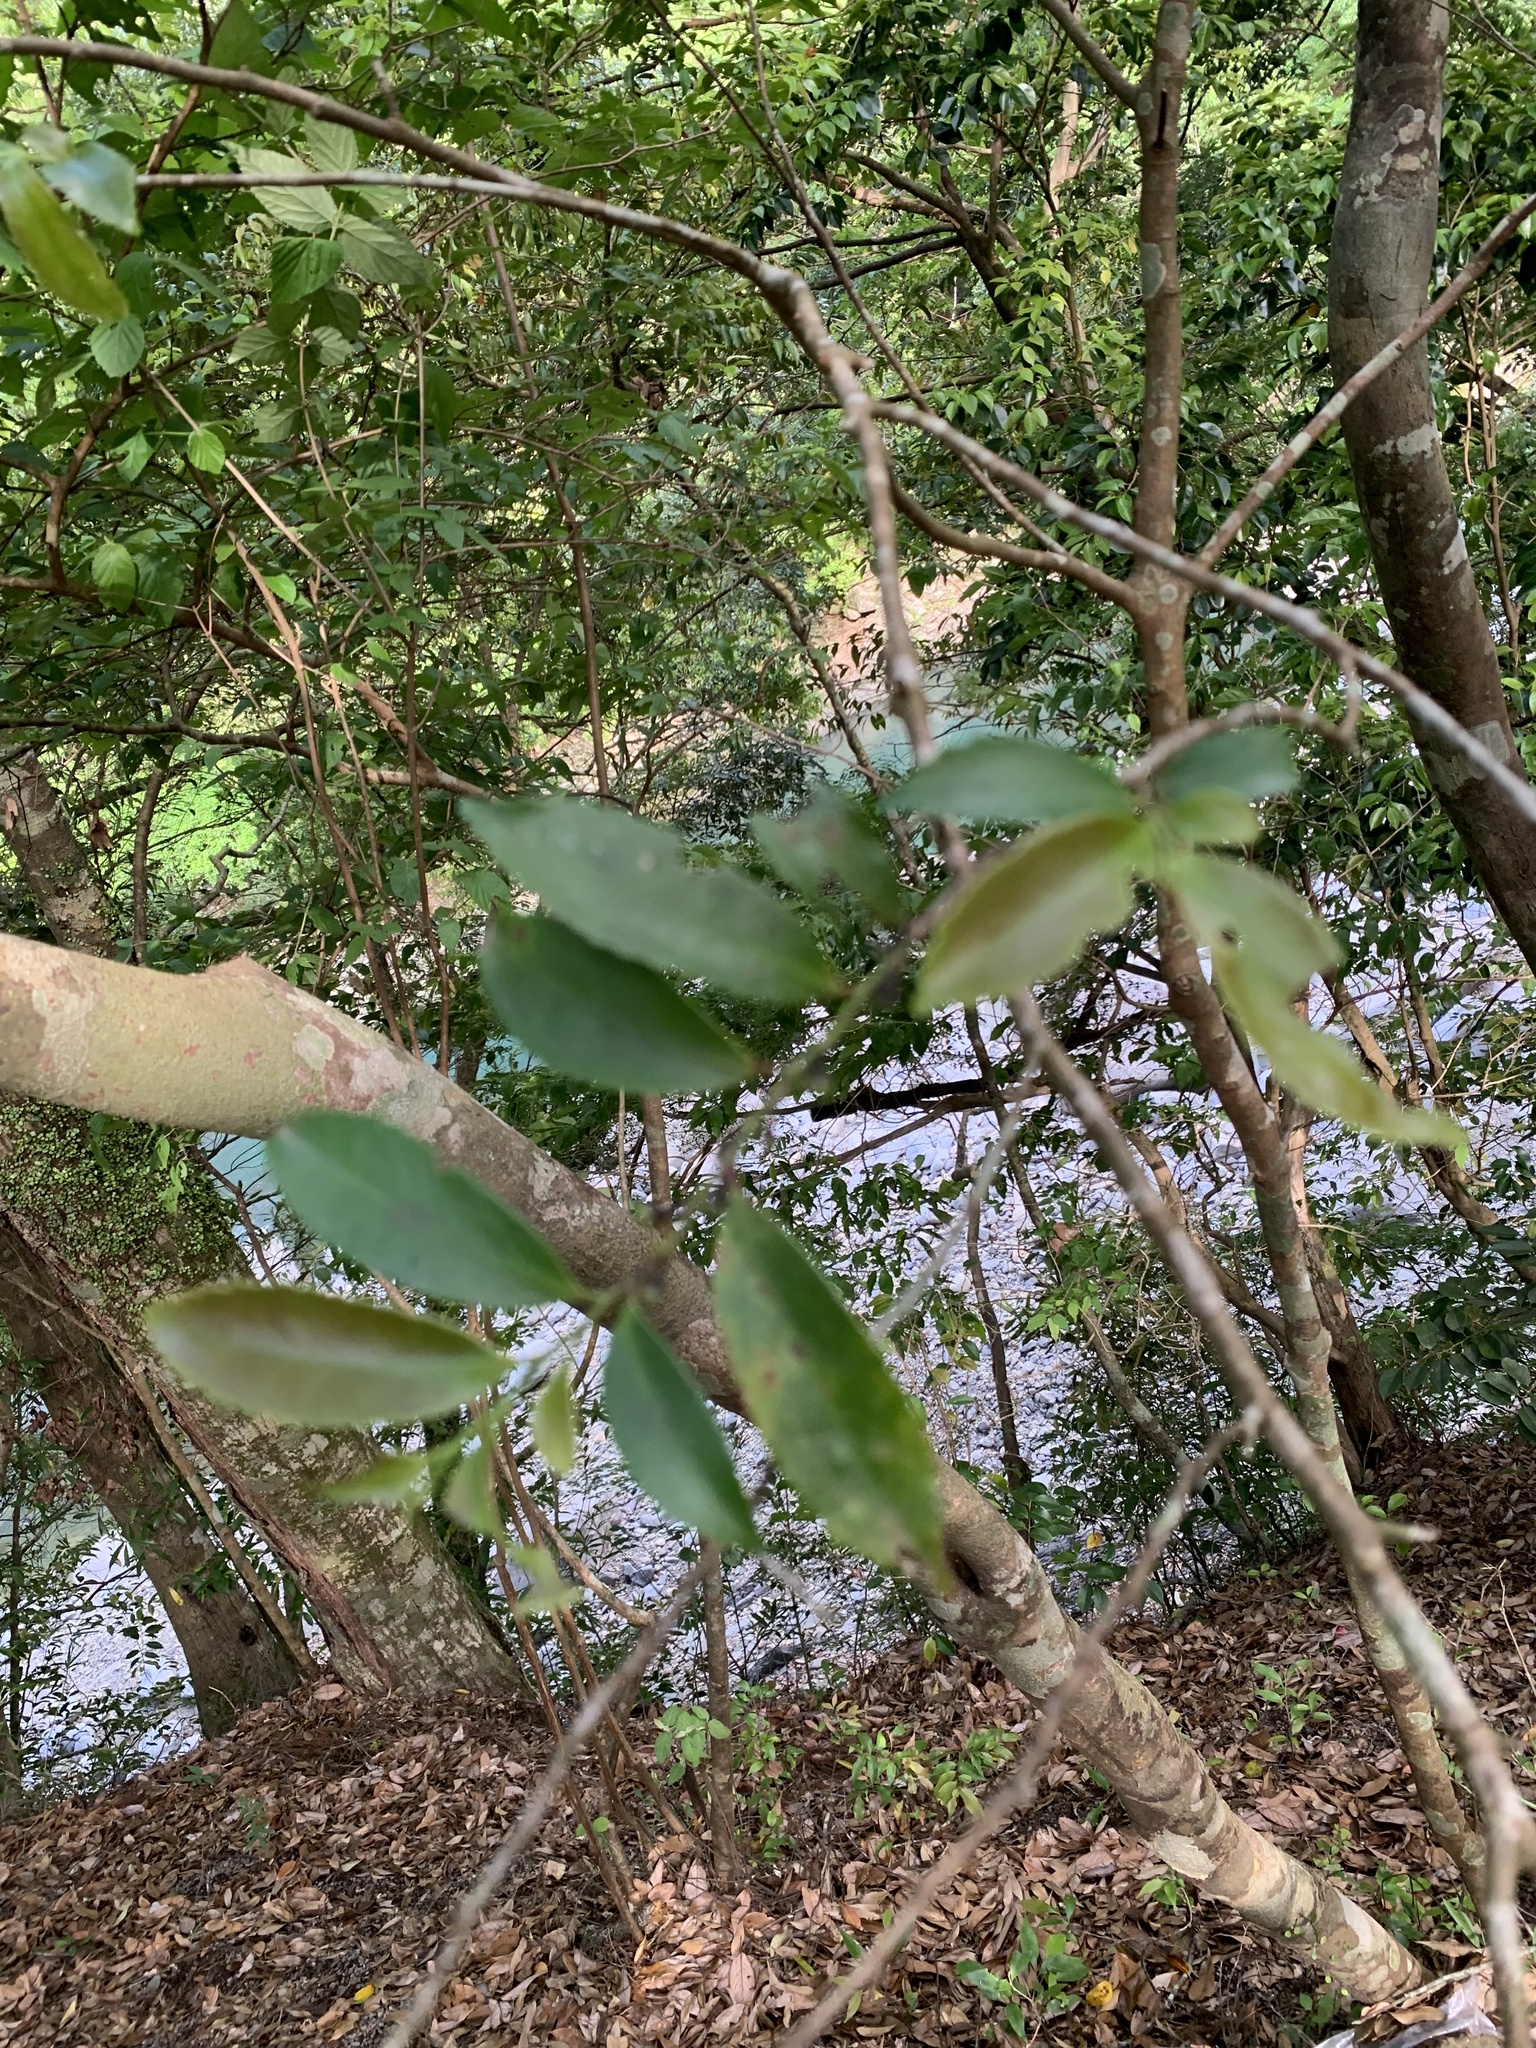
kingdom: Plantae
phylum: Tracheophyta
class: Magnoliopsida
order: Ericales
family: Pentaphylacaceae
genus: Eurya
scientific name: Eurya japonica
